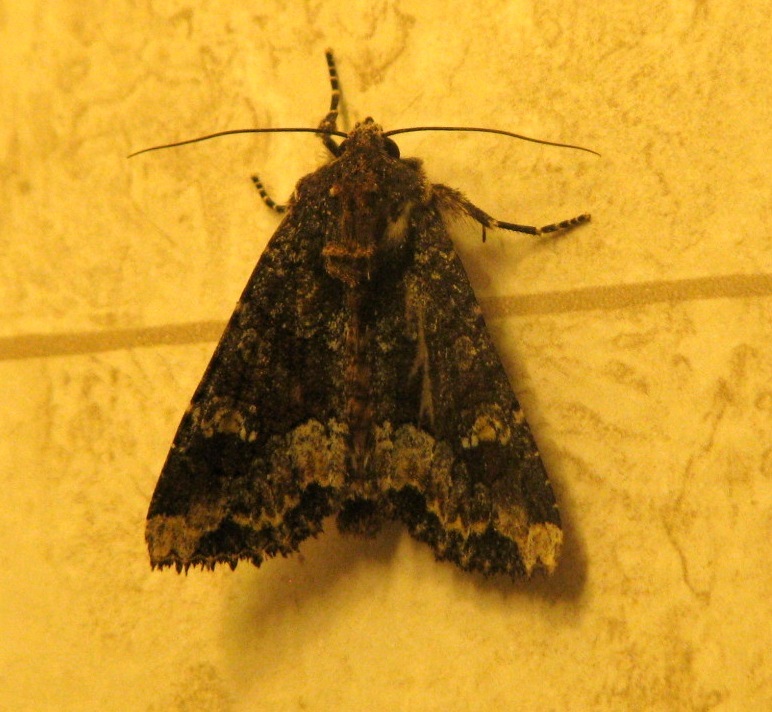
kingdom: Animalia
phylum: Arthropoda
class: Insecta
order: Lepidoptera
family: Noctuidae
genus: Apamea
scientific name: Apamea amputatrix
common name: Yellow-headed cutworm moth
